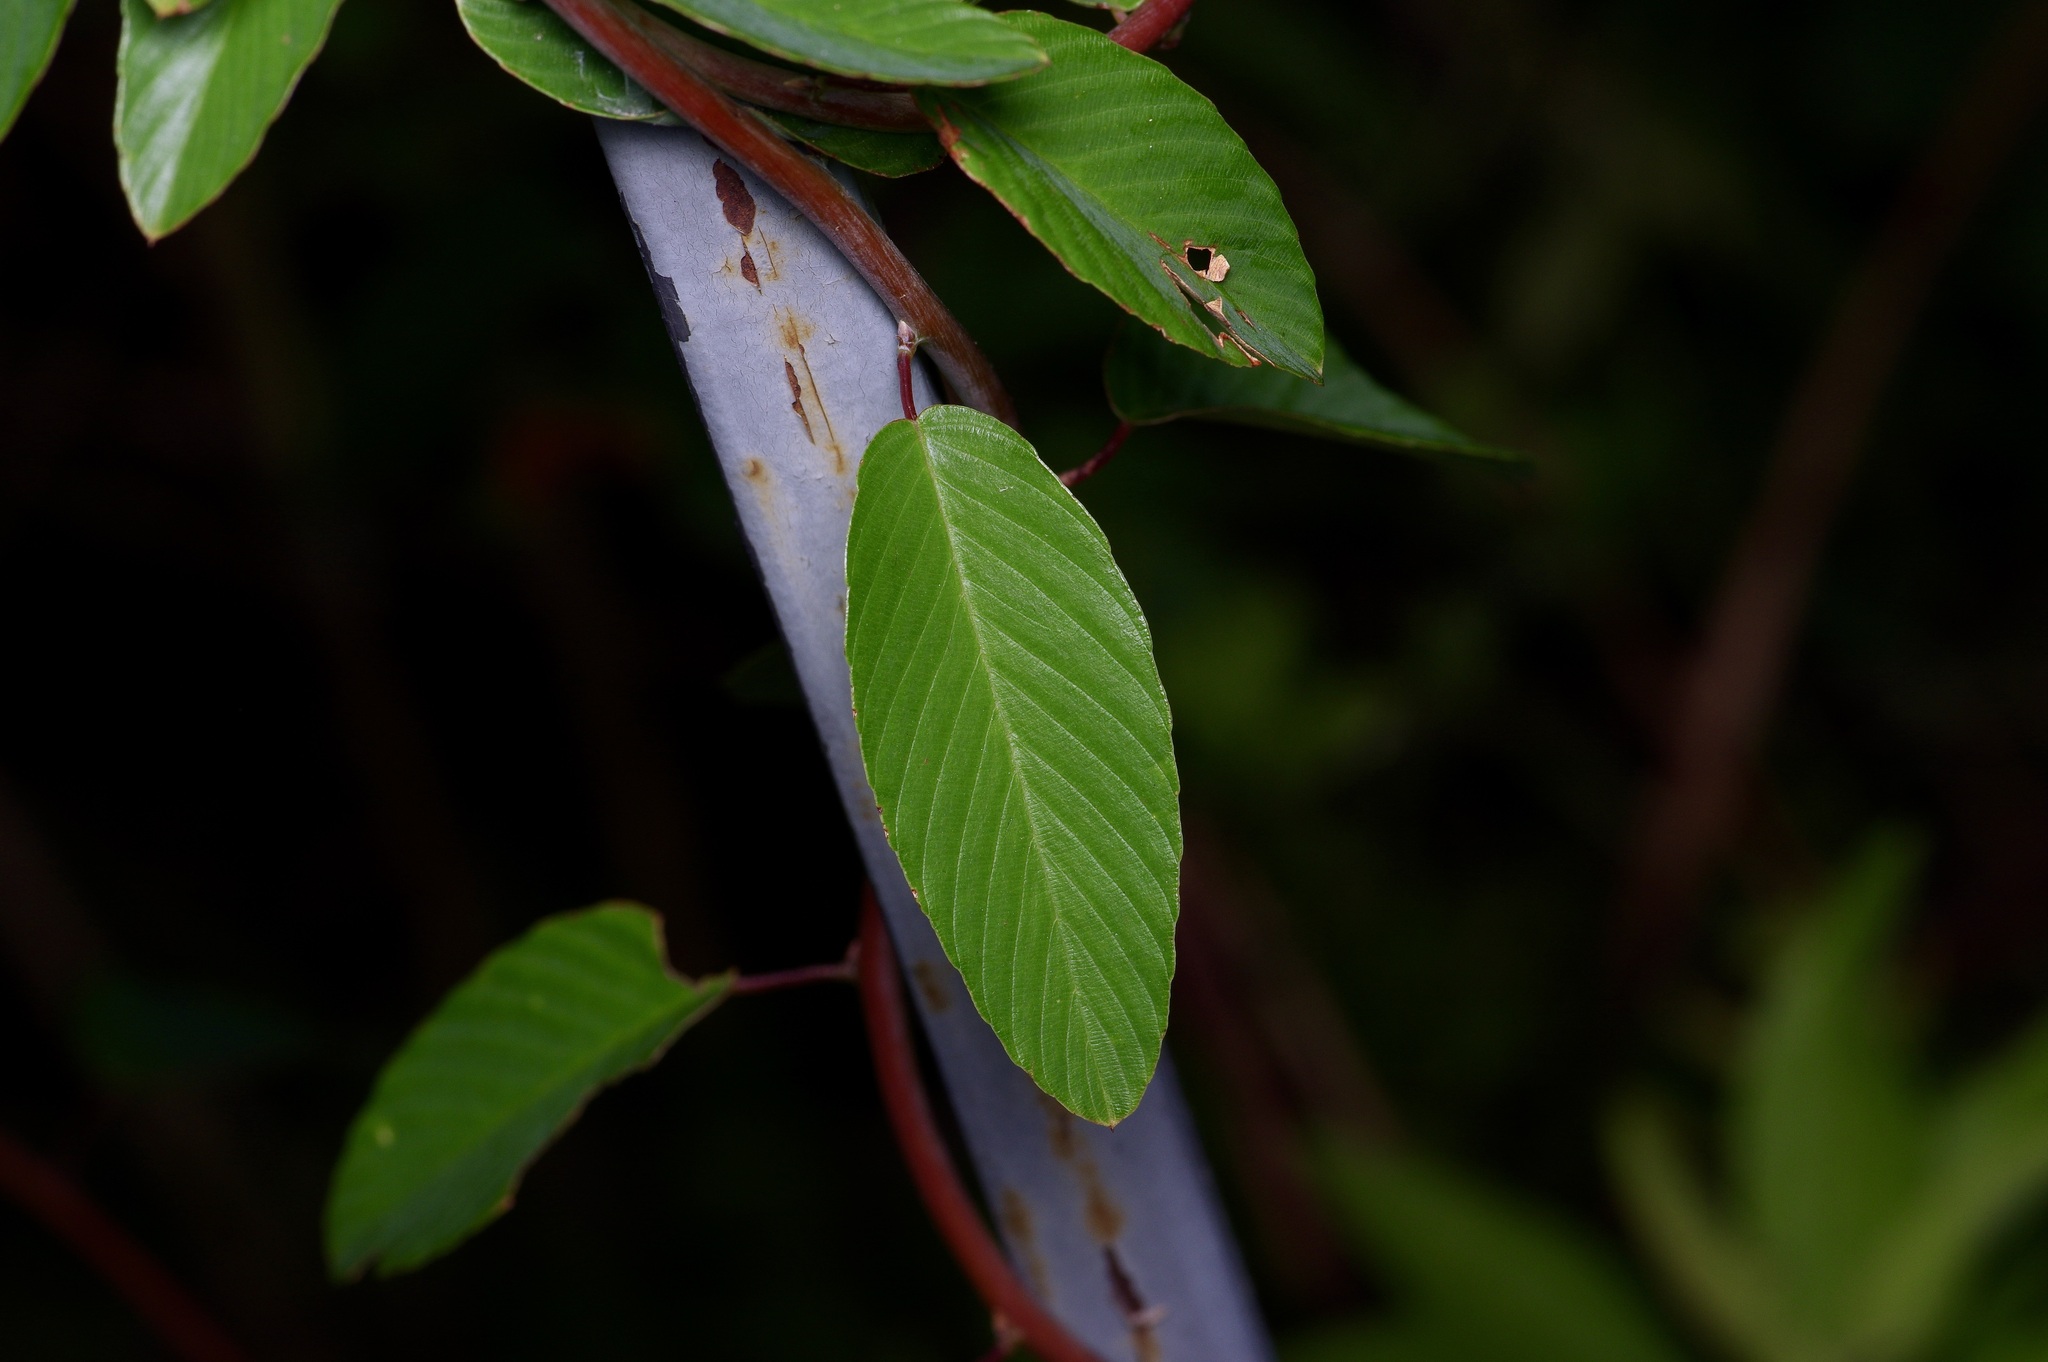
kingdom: Plantae
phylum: Tracheophyta
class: Magnoliopsida
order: Rosales
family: Rhamnaceae
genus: Berchemia
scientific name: Berchemia scandens
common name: Supplejack
